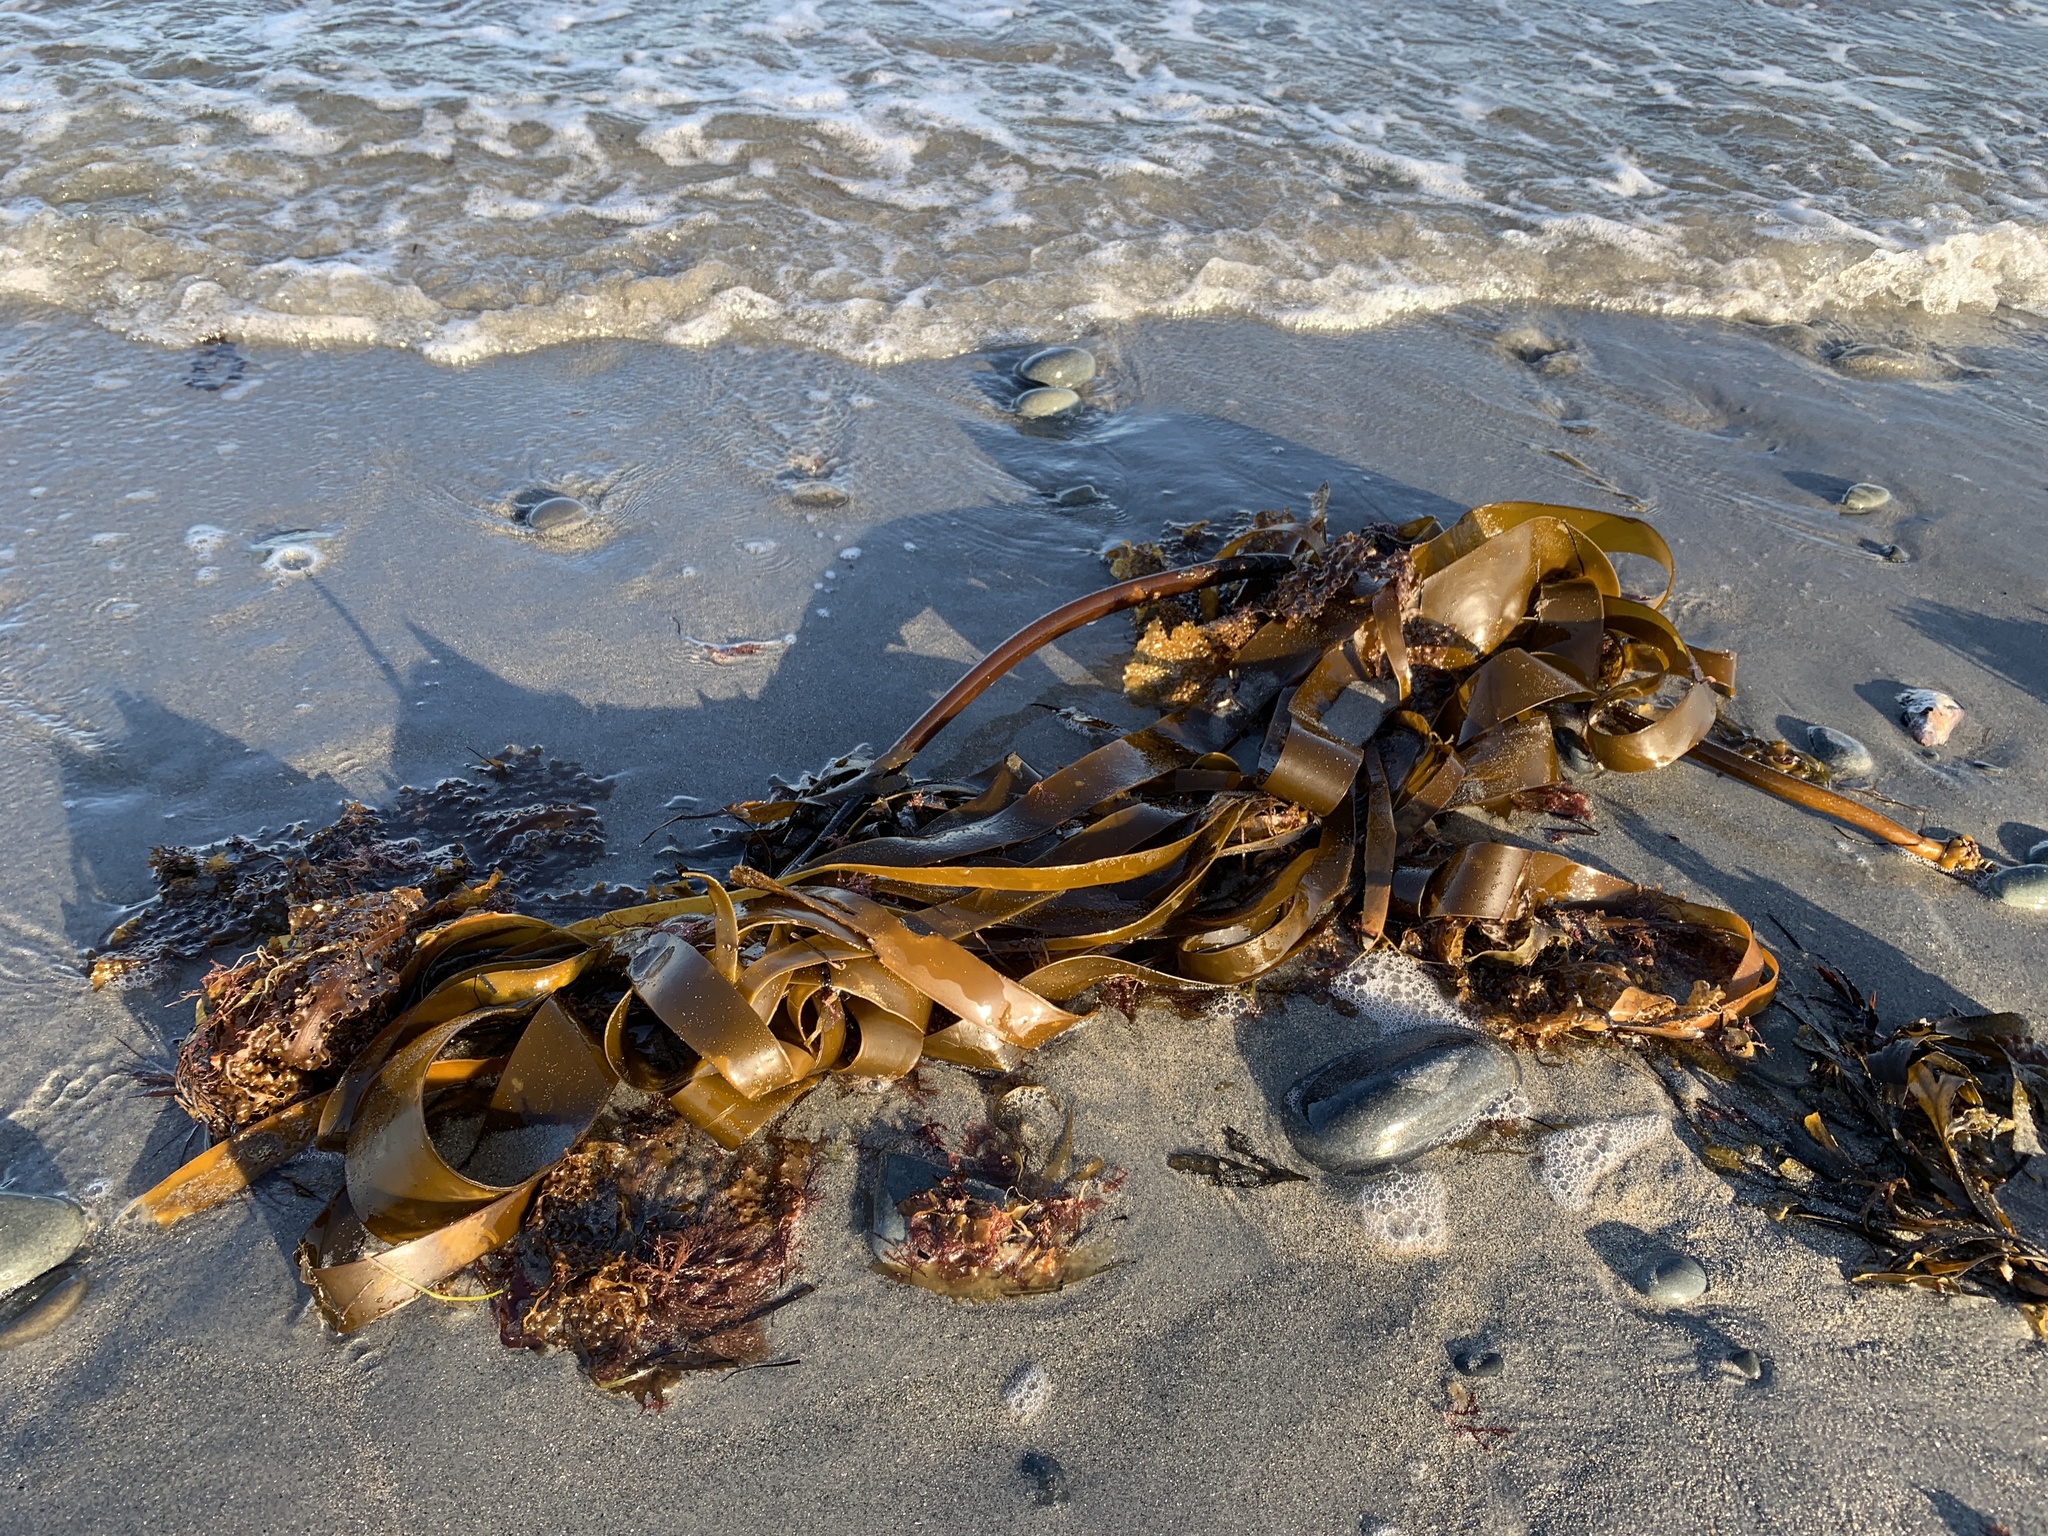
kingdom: Chromista
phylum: Ochrophyta
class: Phaeophyceae
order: Laminariales
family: Laminariaceae
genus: Laminaria
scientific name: Laminaria digitata
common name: Oarweed
